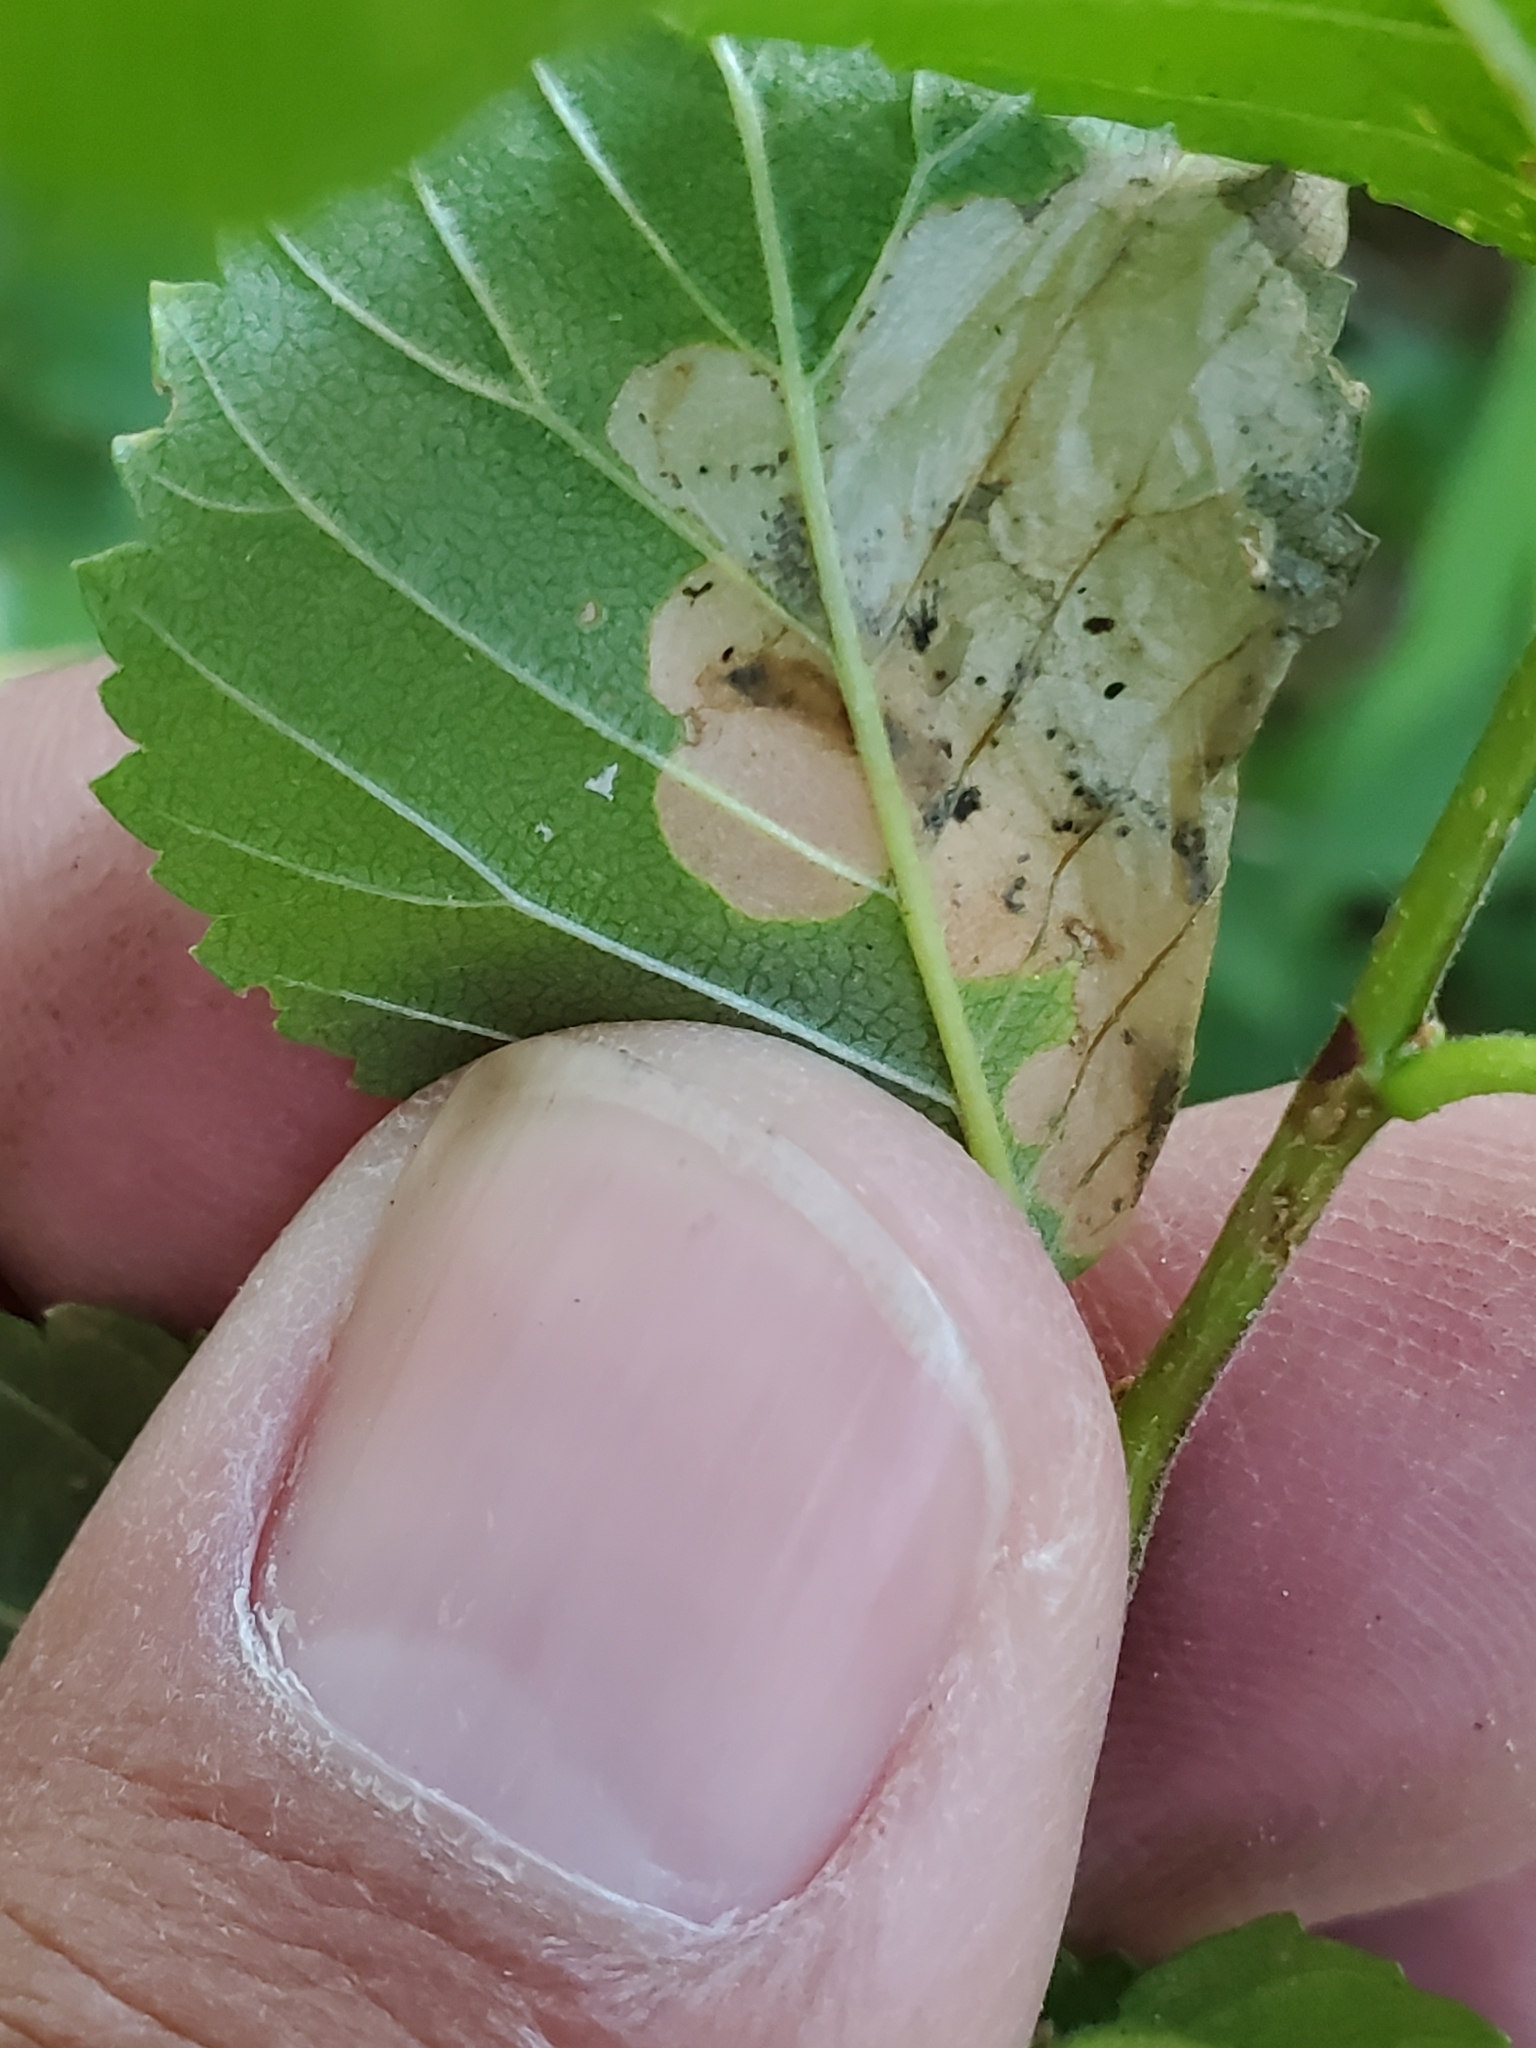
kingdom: Animalia
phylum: Arthropoda
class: Insecta
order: Hymenoptera
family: Tenthredinidae
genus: Fenusa
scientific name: Fenusa ulmi
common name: Elm leafminer
